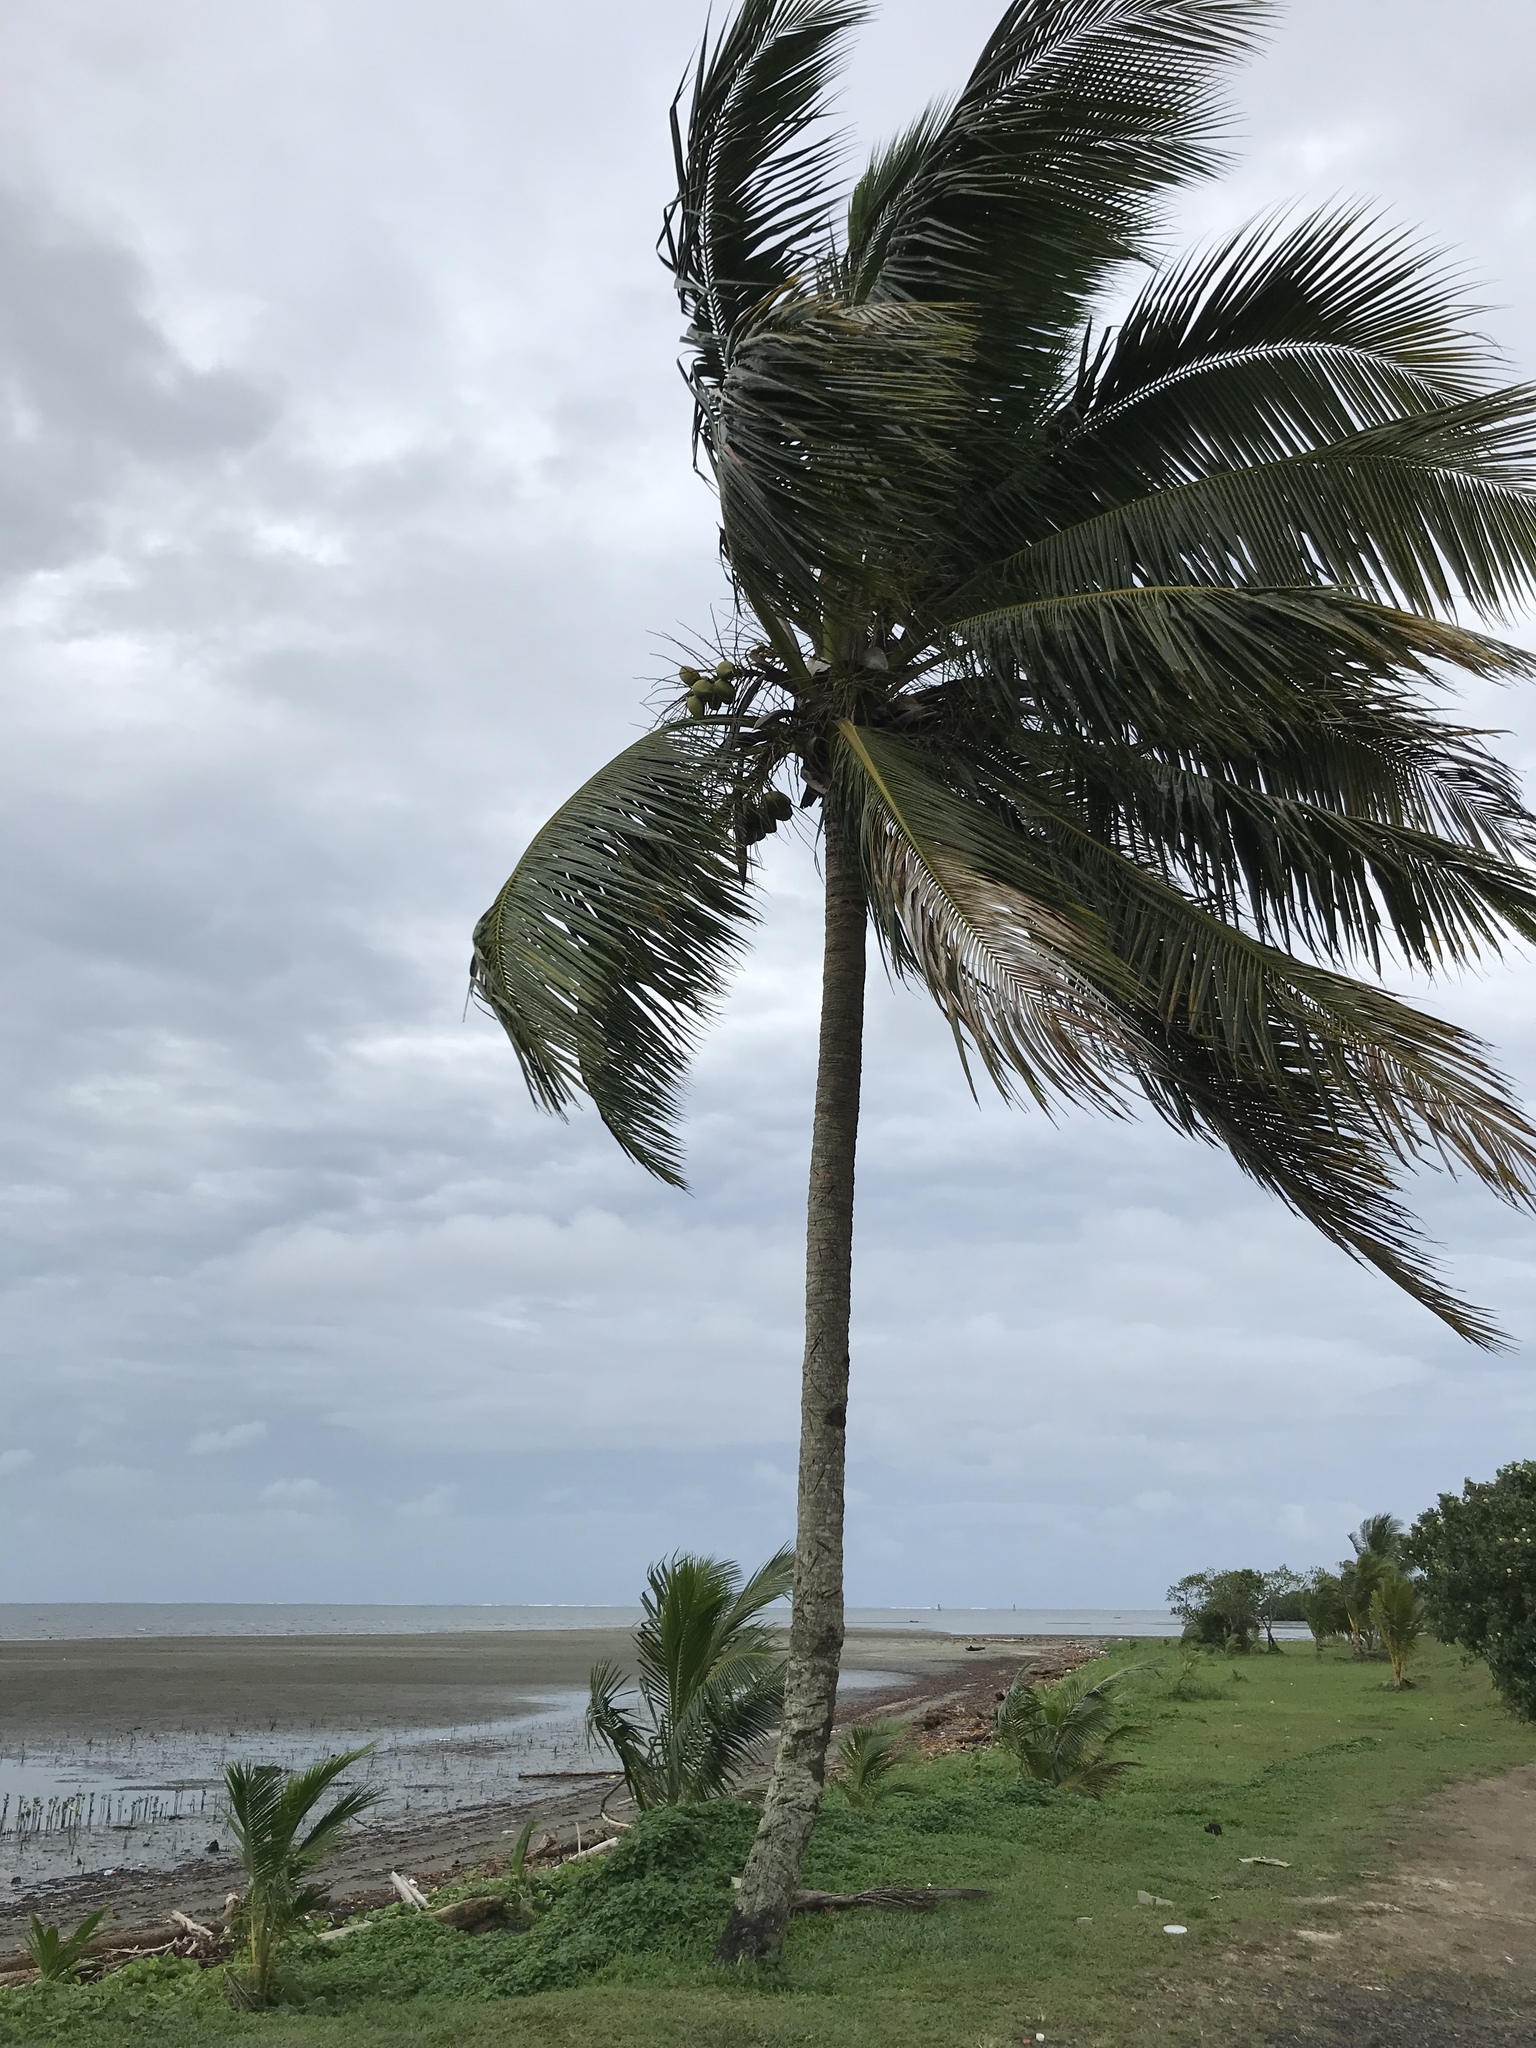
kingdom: Plantae
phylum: Tracheophyta
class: Liliopsida
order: Arecales
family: Arecaceae
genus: Cocos
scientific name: Cocos nucifera
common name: Coconut palm
